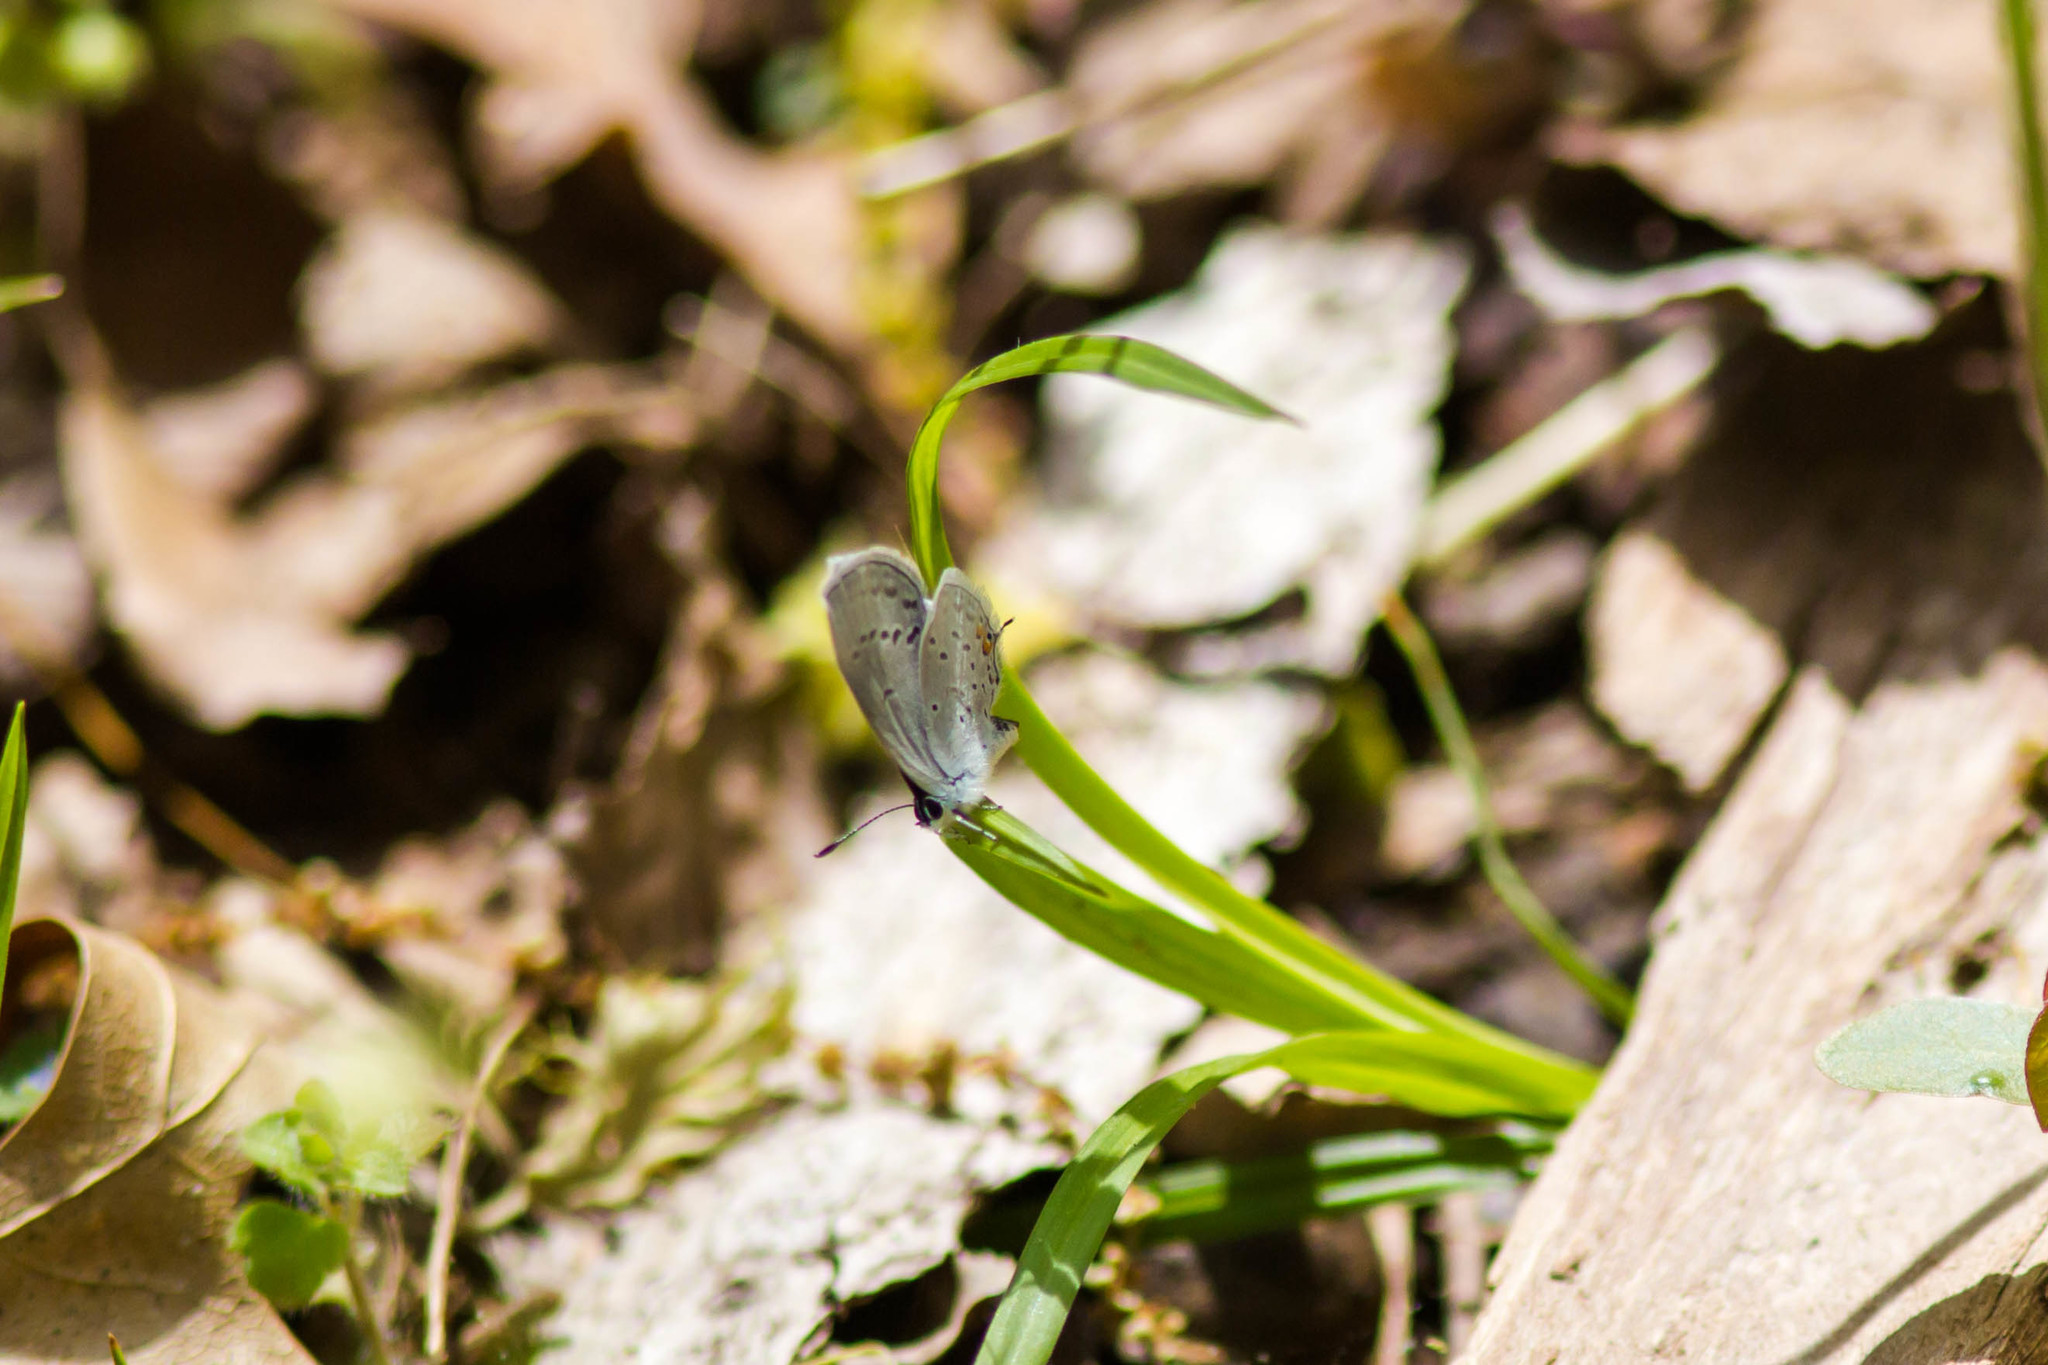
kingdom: Animalia
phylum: Arthropoda
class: Insecta
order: Lepidoptera
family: Lycaenidae
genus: Elkalyce
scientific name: Elkalyce comyntas
